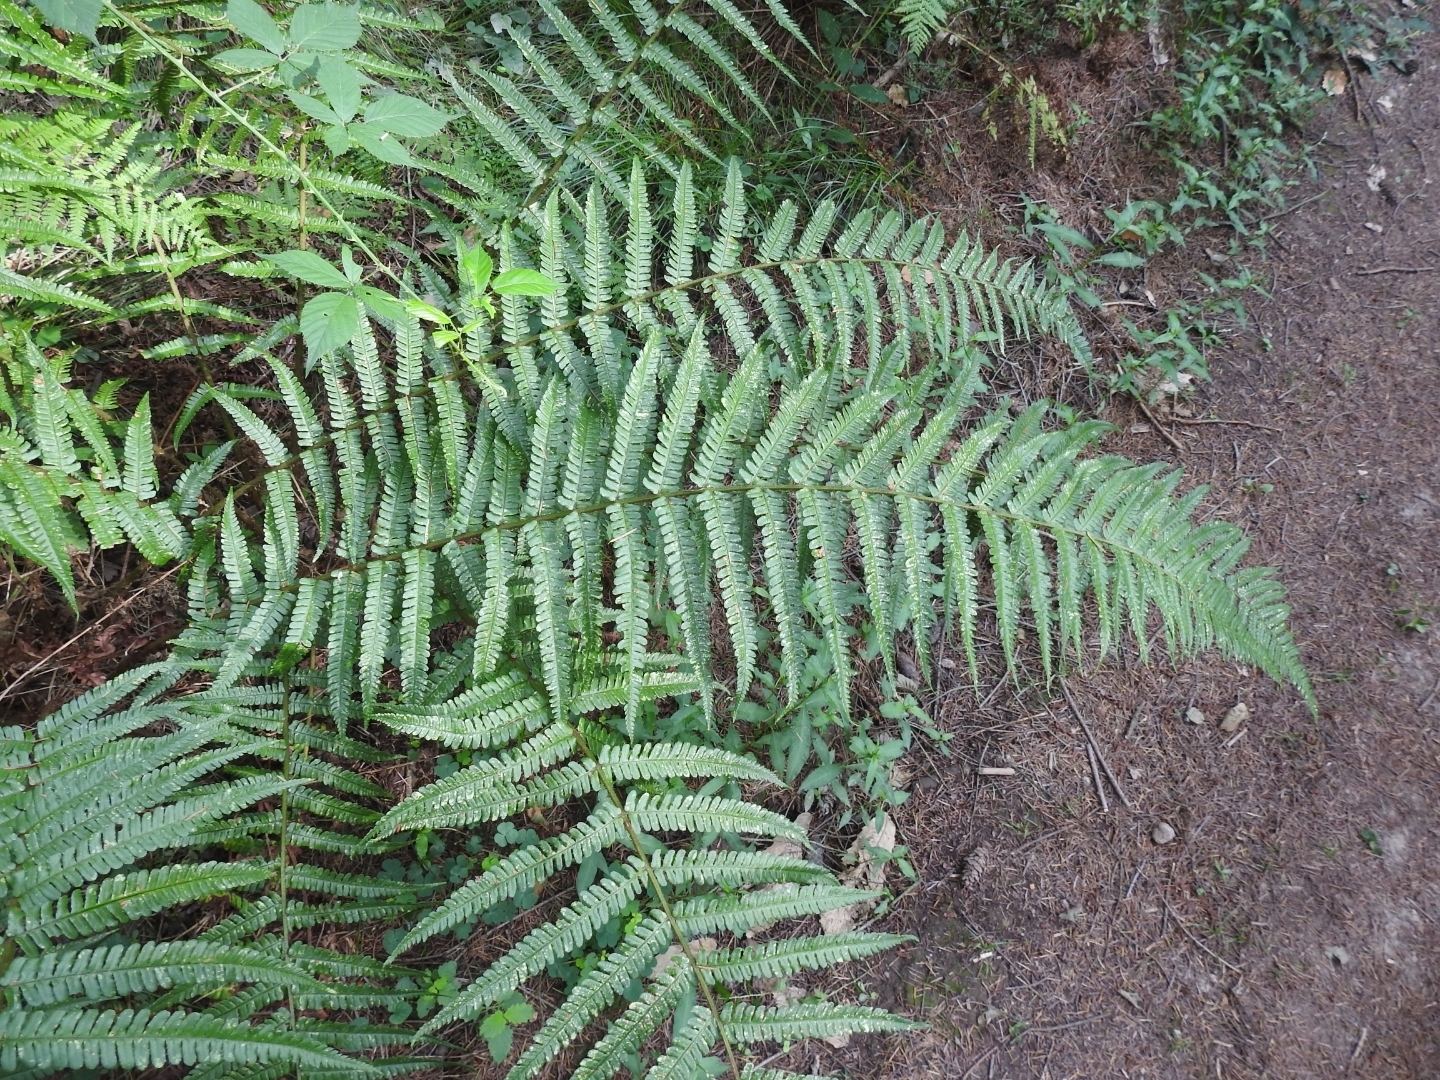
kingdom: Plantae
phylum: Tracheophyta
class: Polypodiopsida
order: Polypodiales
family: Dryopteridaceae
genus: Dryopteris
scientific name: Dryopteris affinis
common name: Scaly male fern
